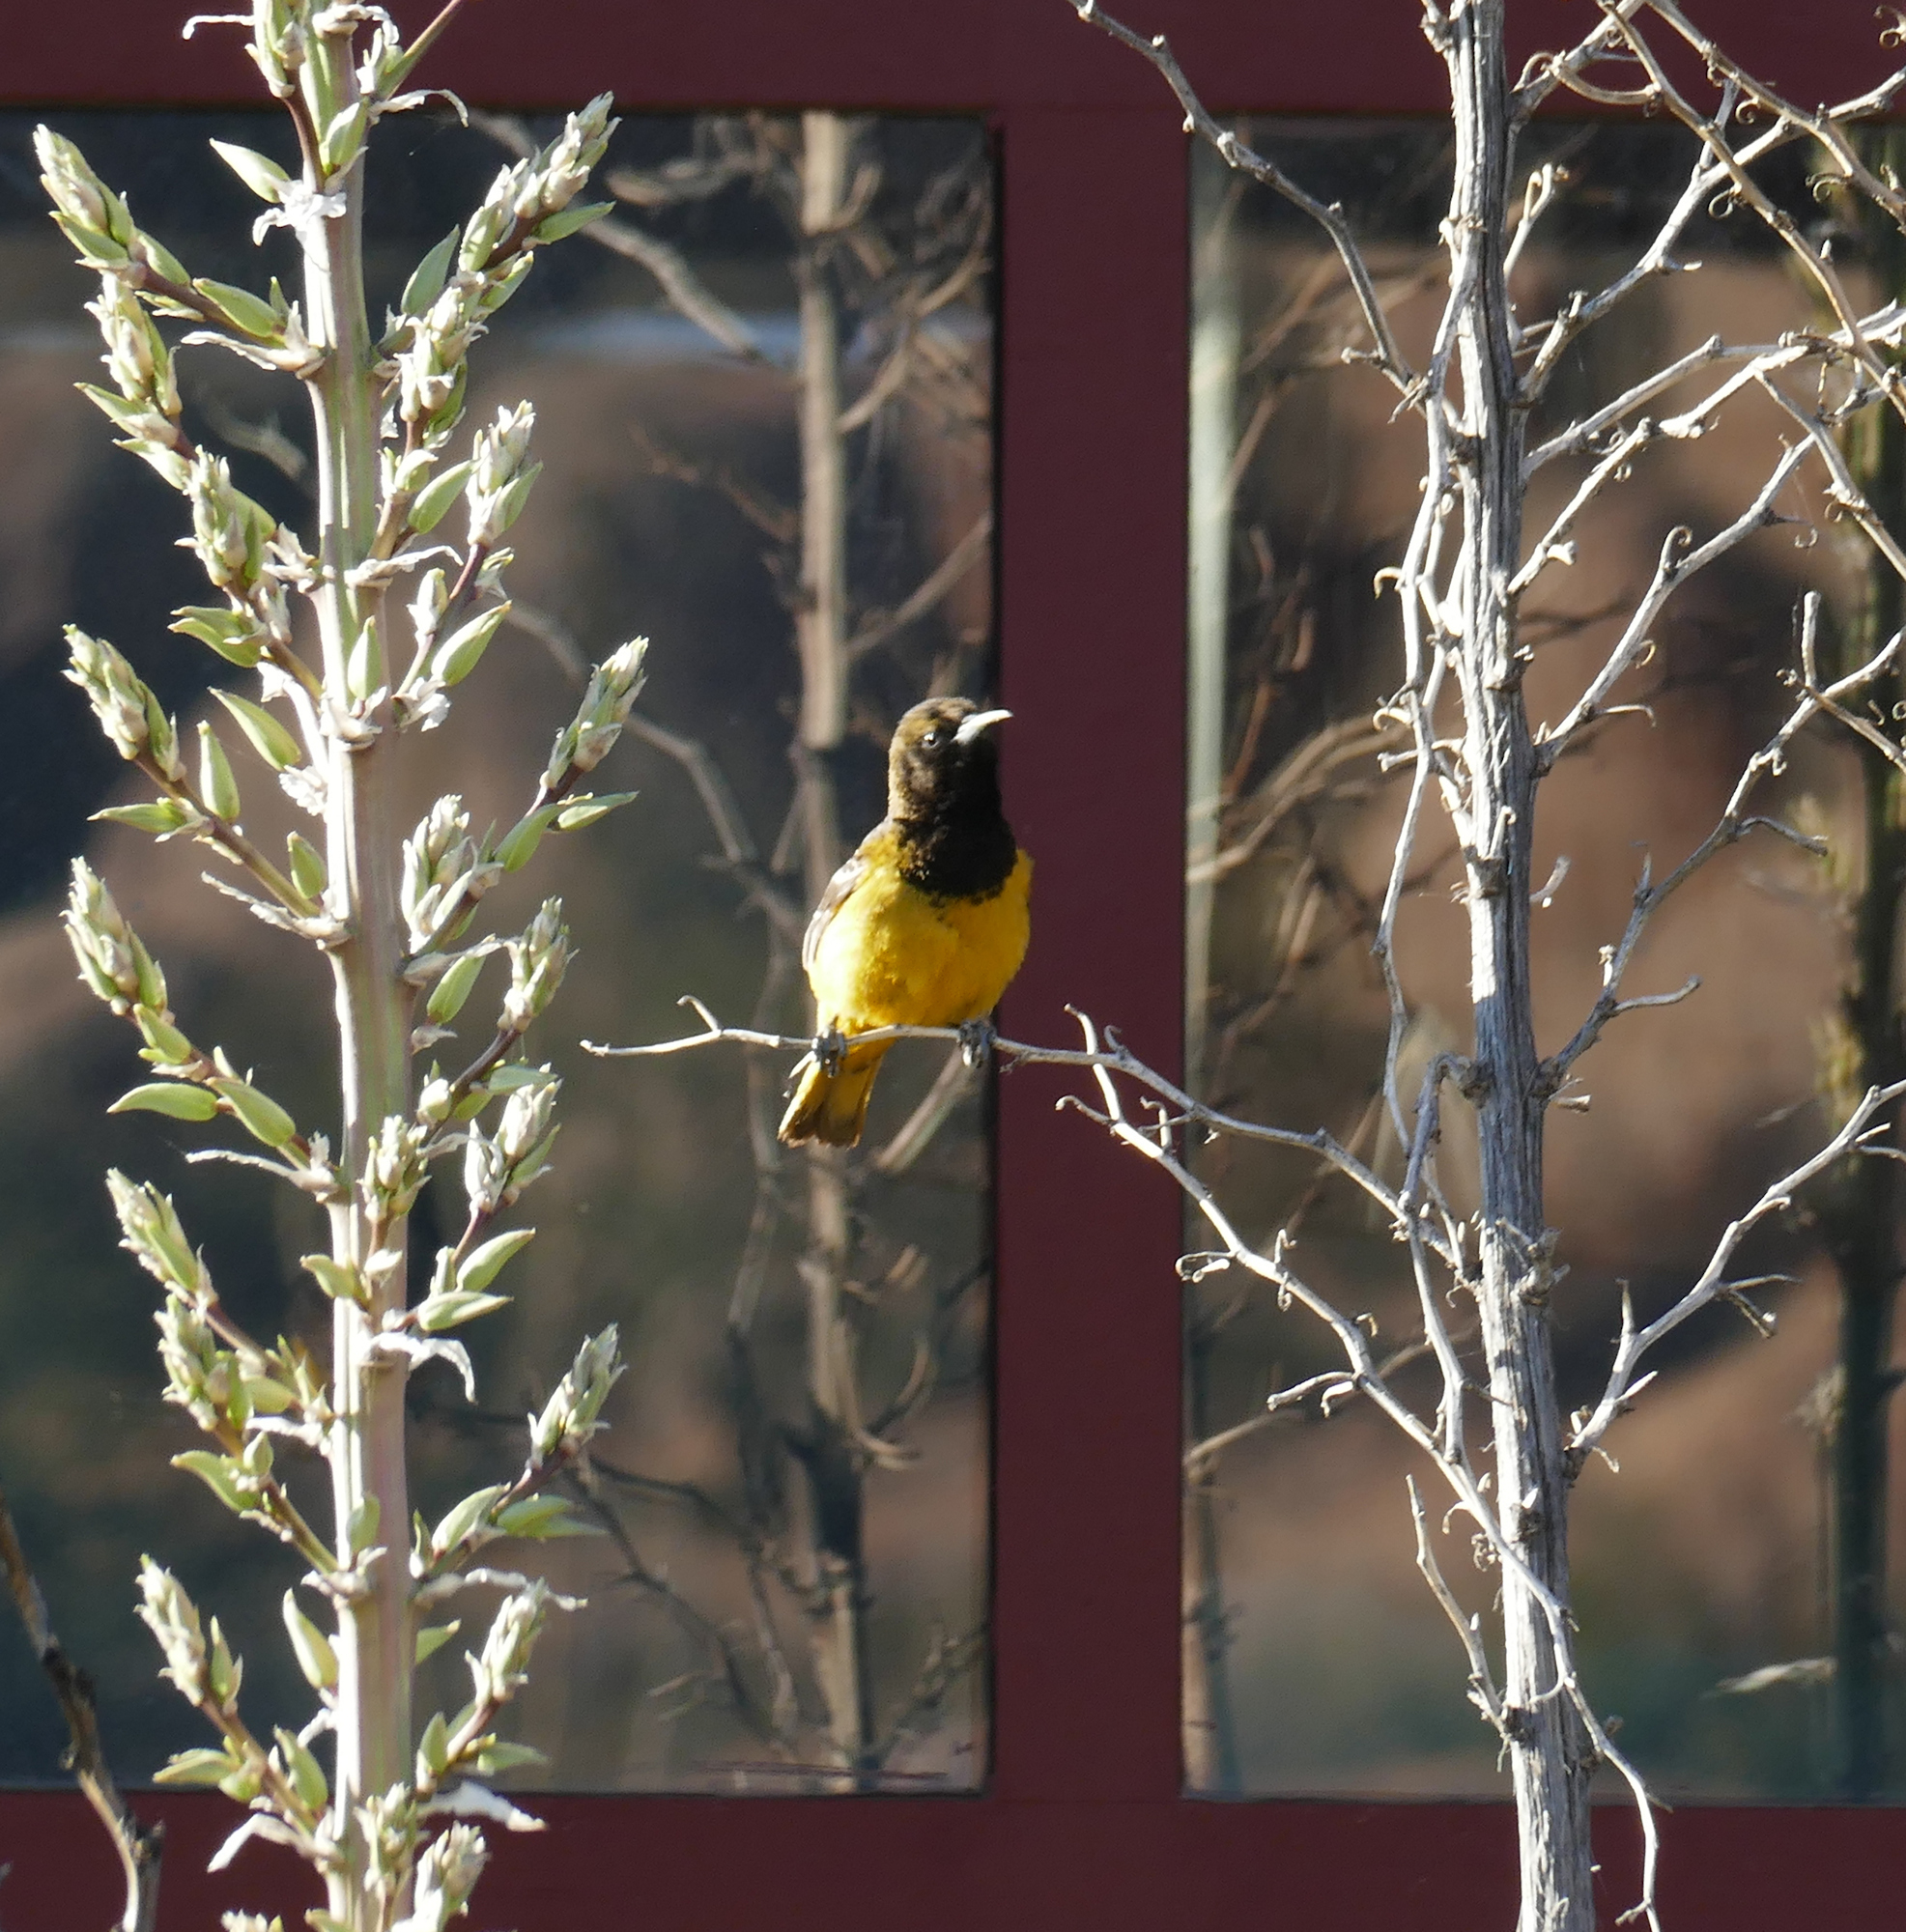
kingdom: Animalia
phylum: Chordata
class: Aves
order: Passeriformes
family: Icteridae
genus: Icterus
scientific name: Icterus parisorum
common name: Scott's oriole
